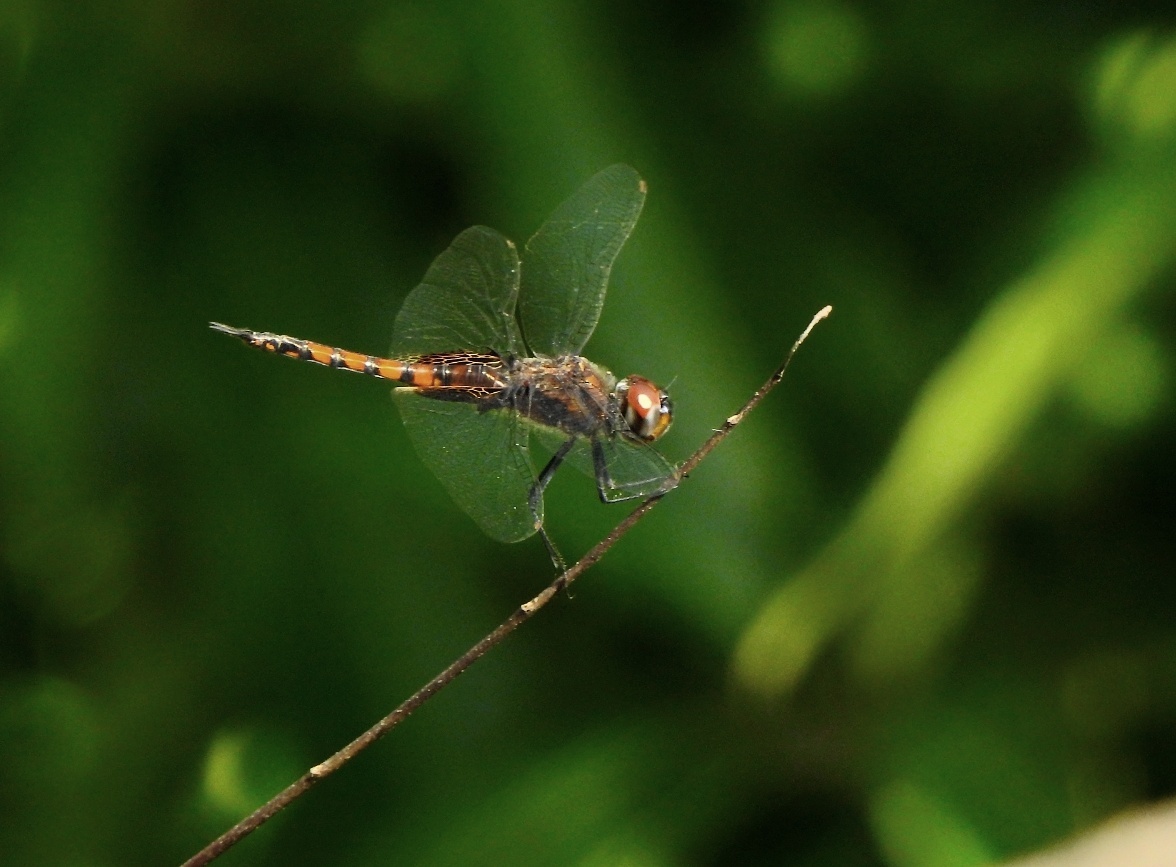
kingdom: Animalia
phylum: Arthropoda
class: Insecta
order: Odonata
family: Libellulidae
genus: Tramea
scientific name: Tramea limbata
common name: Ferruginous glider
